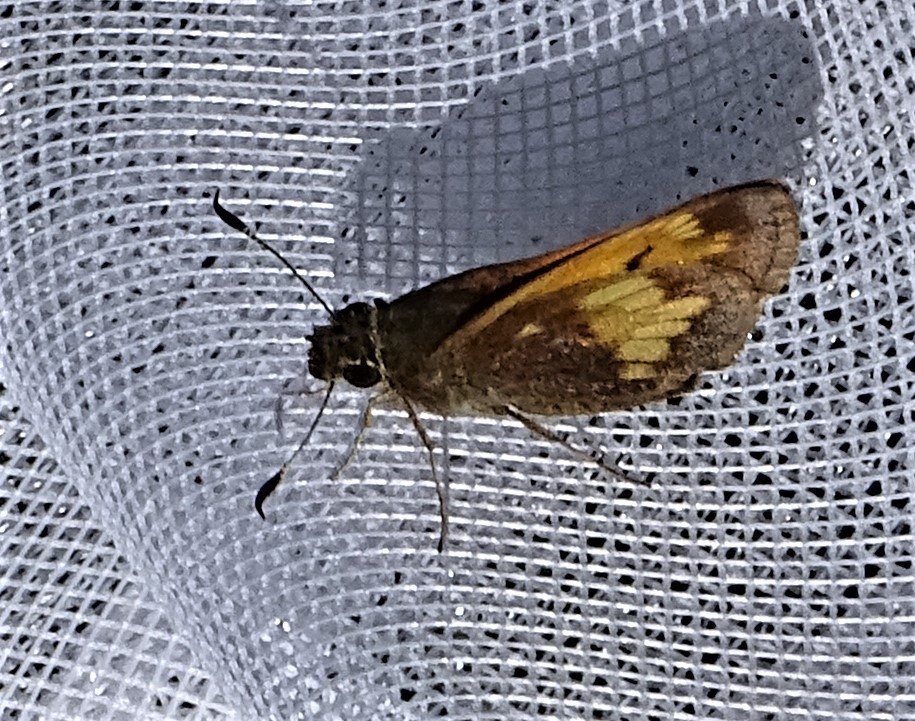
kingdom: Animalia
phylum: Arthropoda
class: Insecta
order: Lepidoptera
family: Hesperiidae
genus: Lon
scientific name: Lon hobomok
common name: Hobomok skipper
